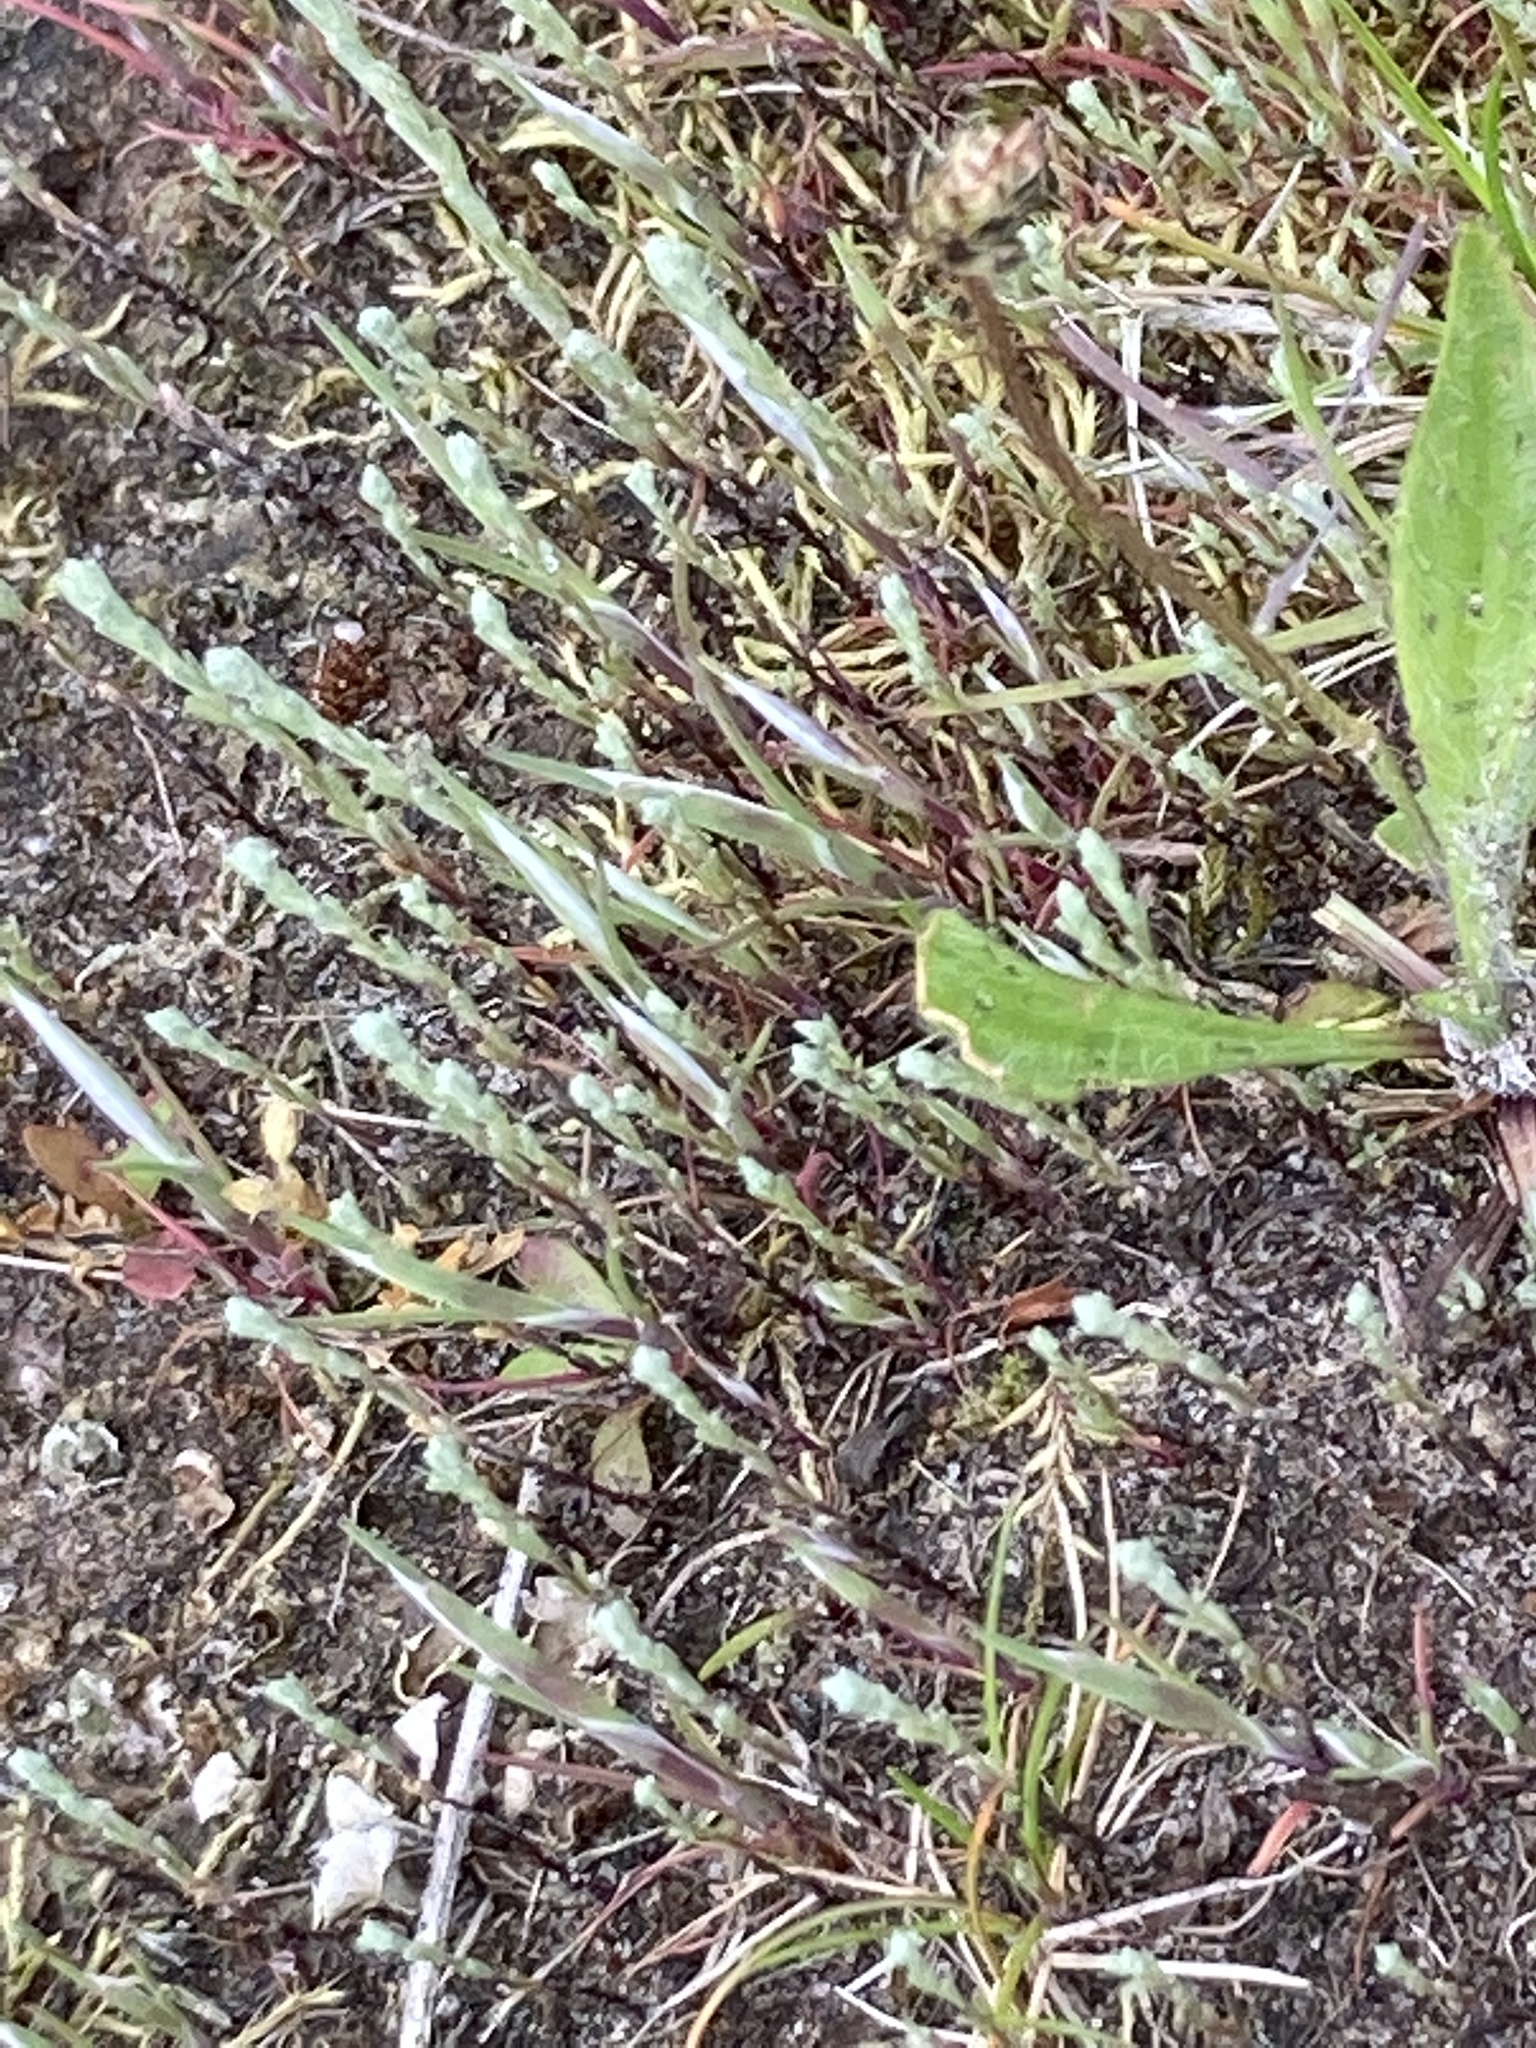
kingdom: Plantae
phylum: Tracheophyta
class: Magnoliopsida
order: Asterales
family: Asteraceae
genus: Logfia
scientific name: Logfia minima
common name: Little cottonrose
